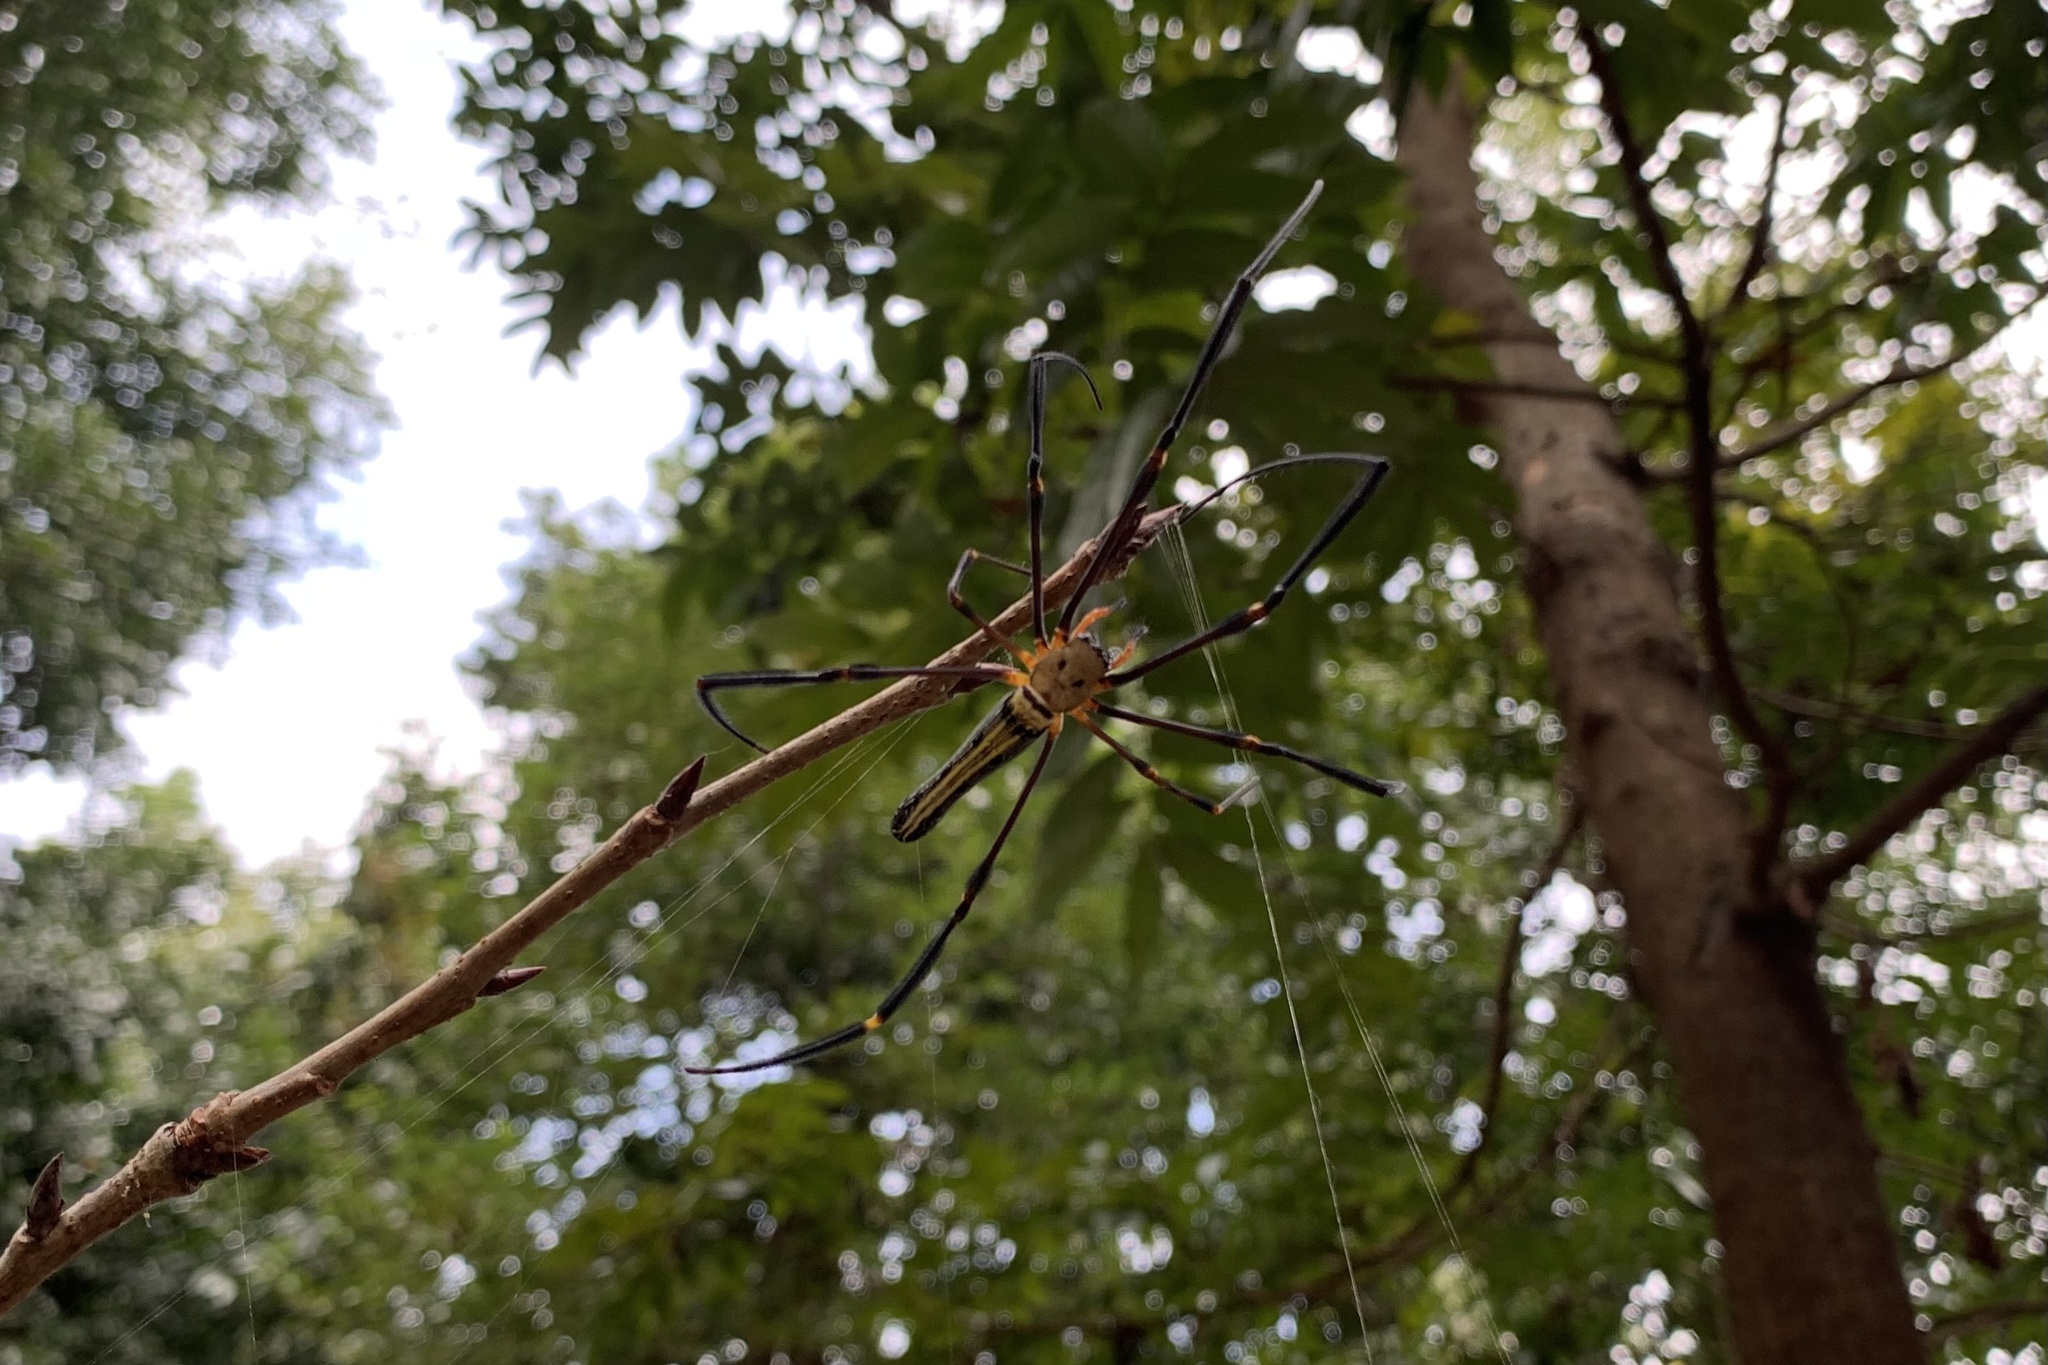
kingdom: Animalia
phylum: Arthropoda
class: Arachnida
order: Araneae
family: Araneidae
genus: Nephila
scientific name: Nephila pilipes
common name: Giant golden orb weaver
